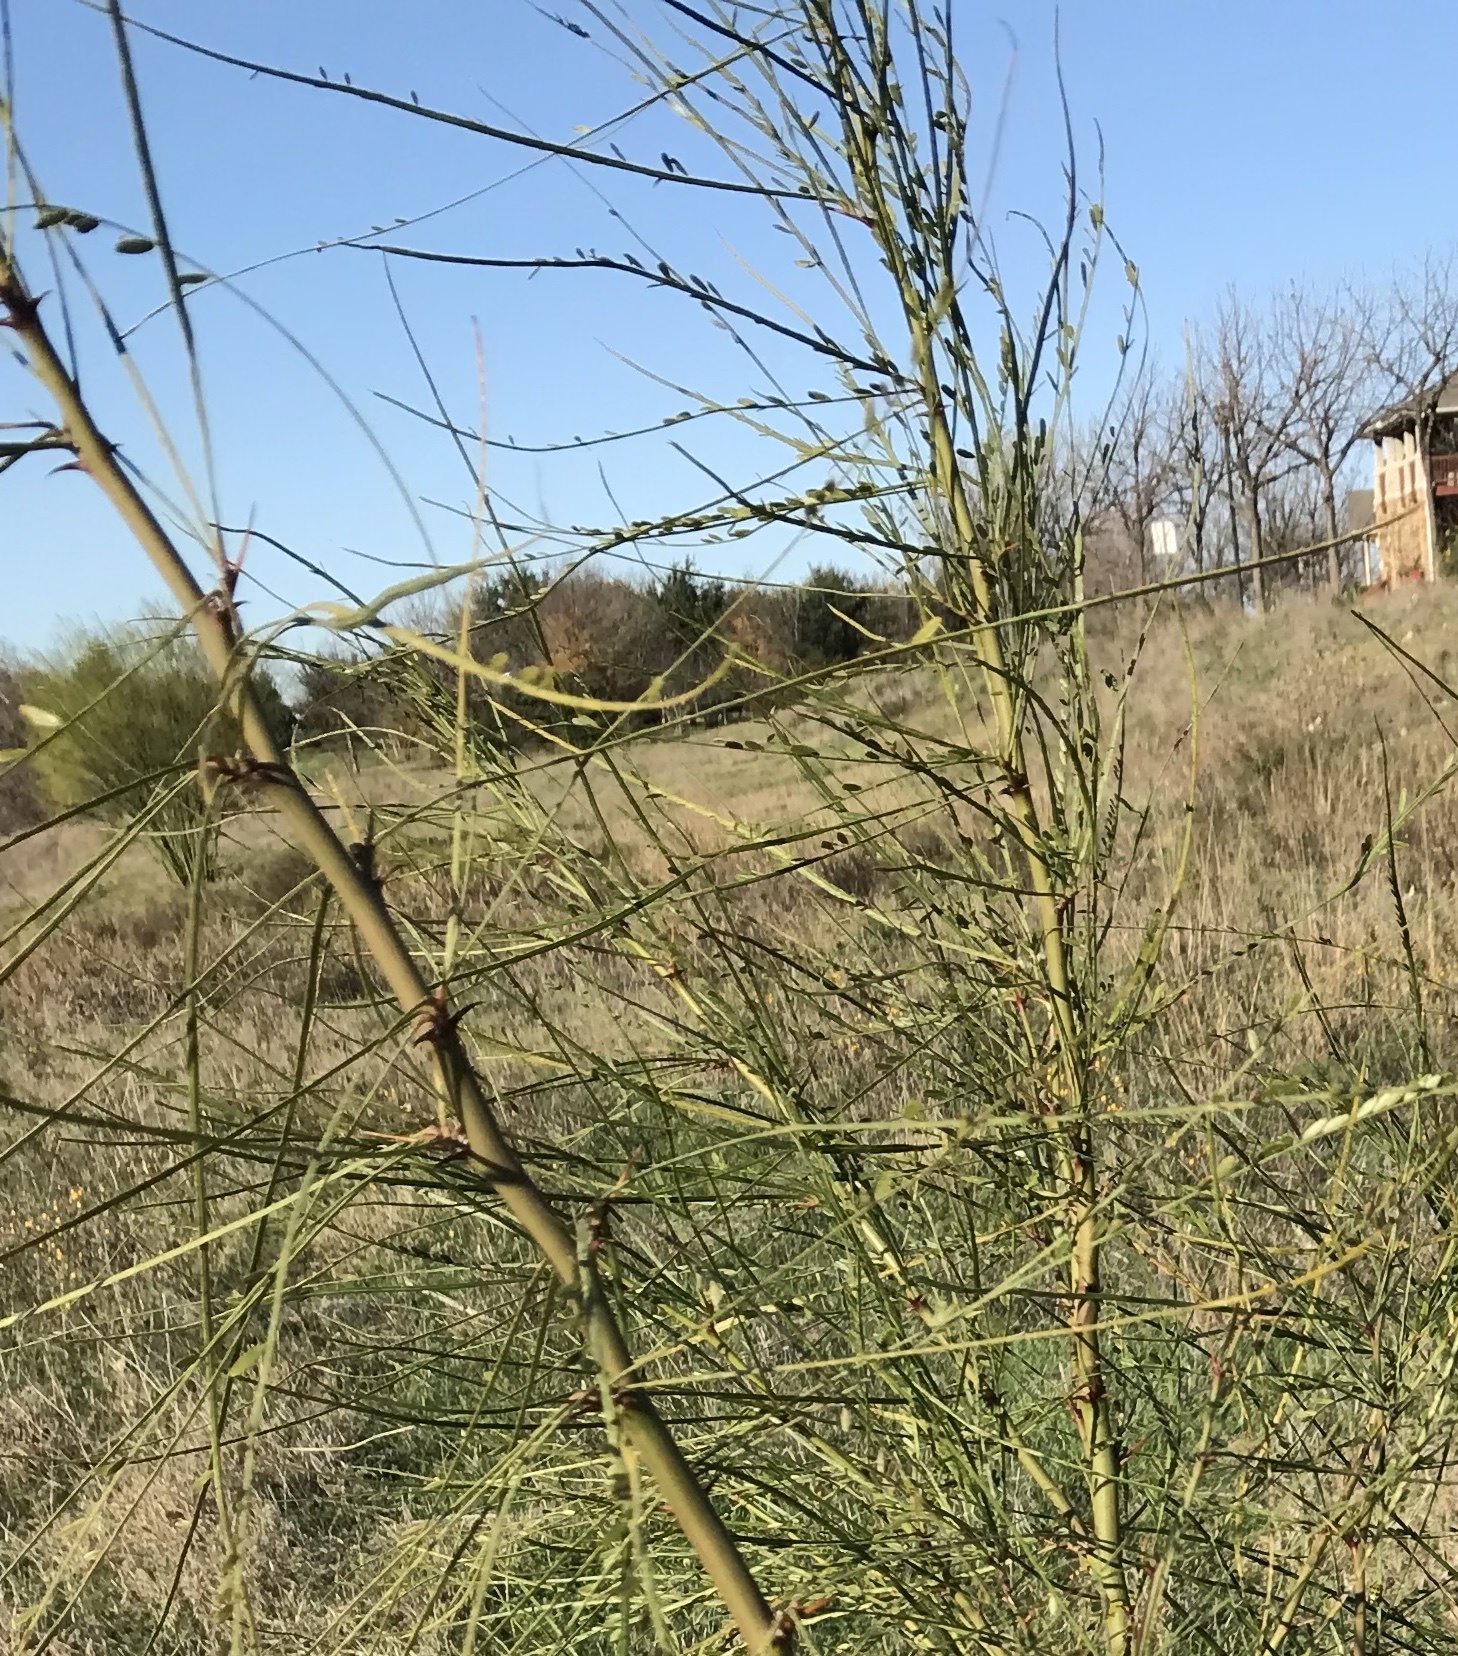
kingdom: Plantae
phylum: Tracheophyta
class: Magnoliopsida
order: Fabales
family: Fabaceae
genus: Parkinsonia
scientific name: Parkinsonia aculeata
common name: Jerusalem thorn
